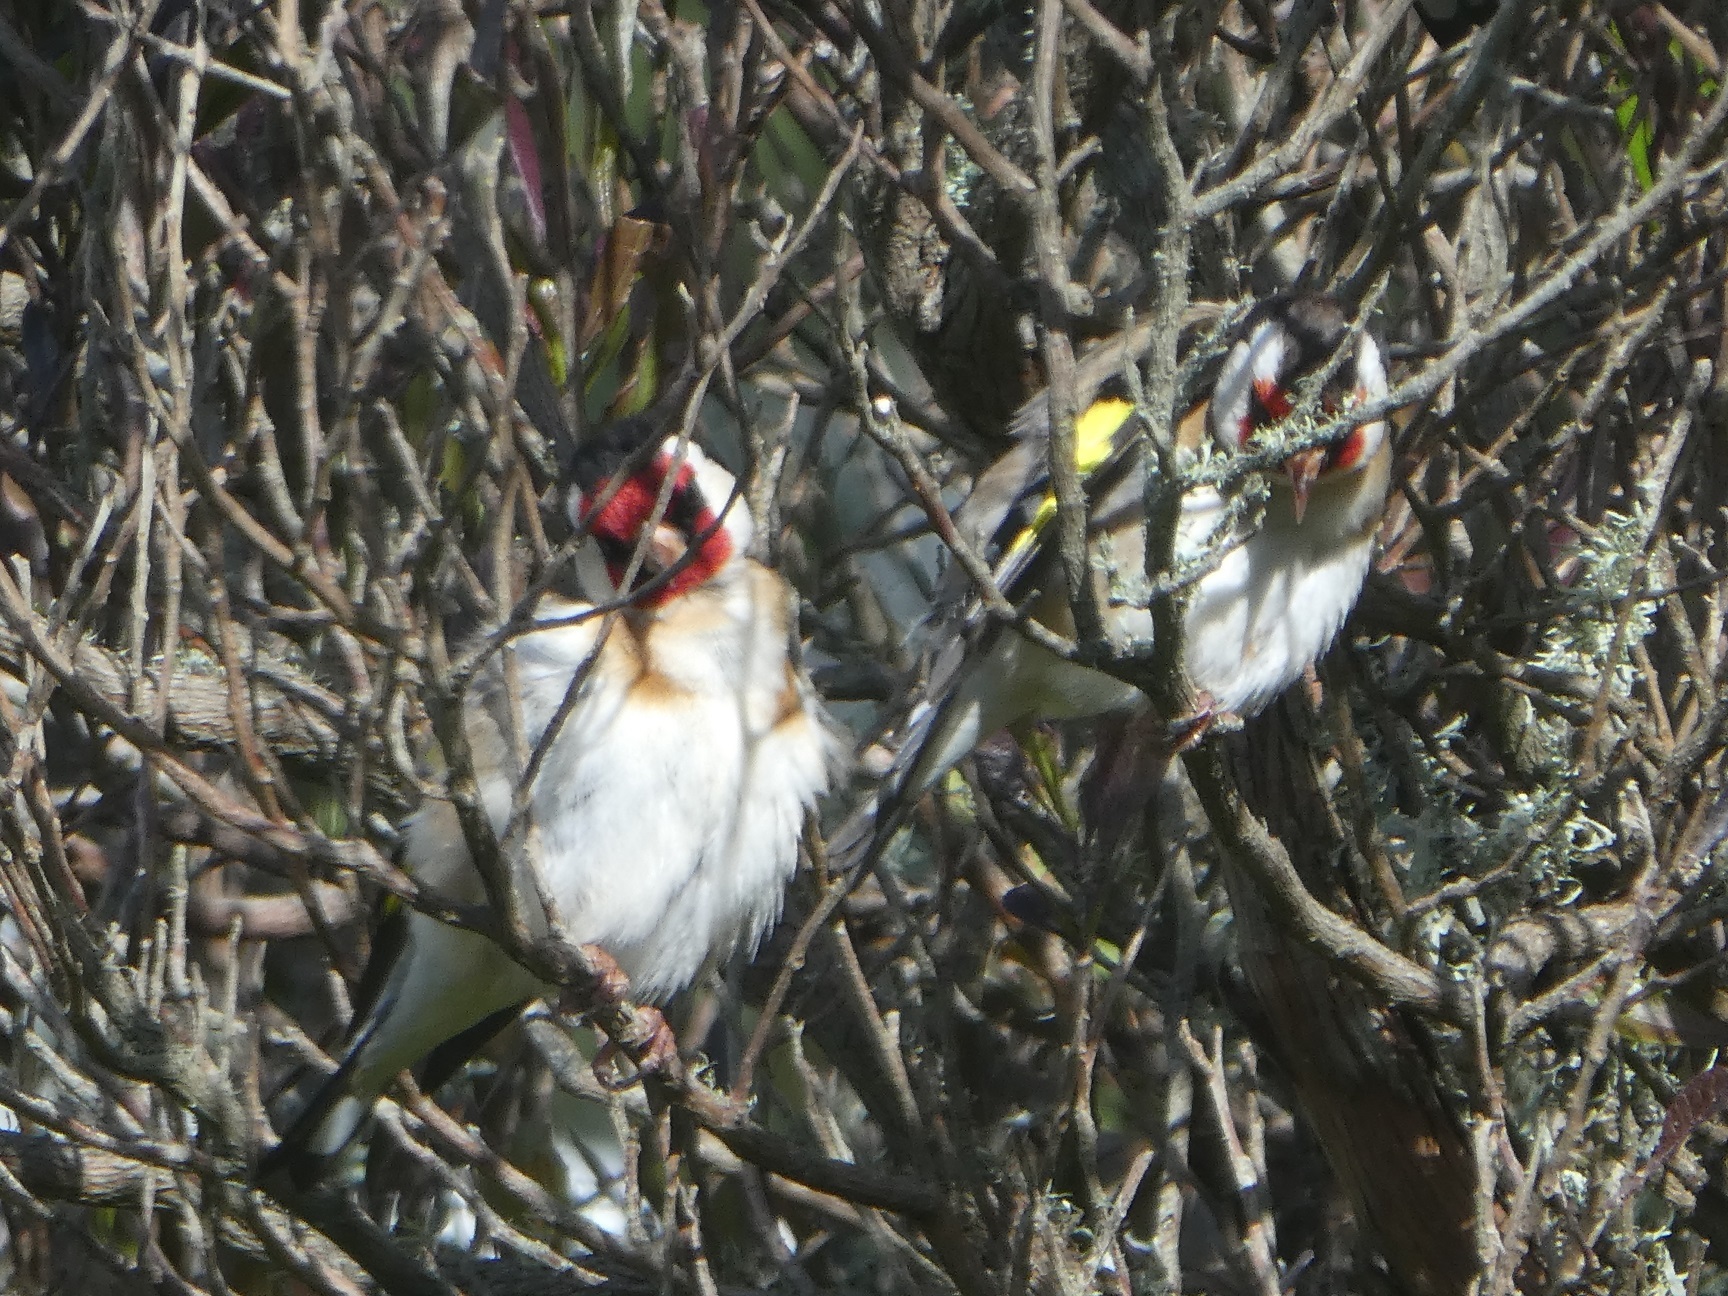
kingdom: Animalia
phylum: Chordata
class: Aves
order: Passeriformes
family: Fringillidae
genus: Carduelis
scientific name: Carduelis carduelis
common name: European goldfinch
